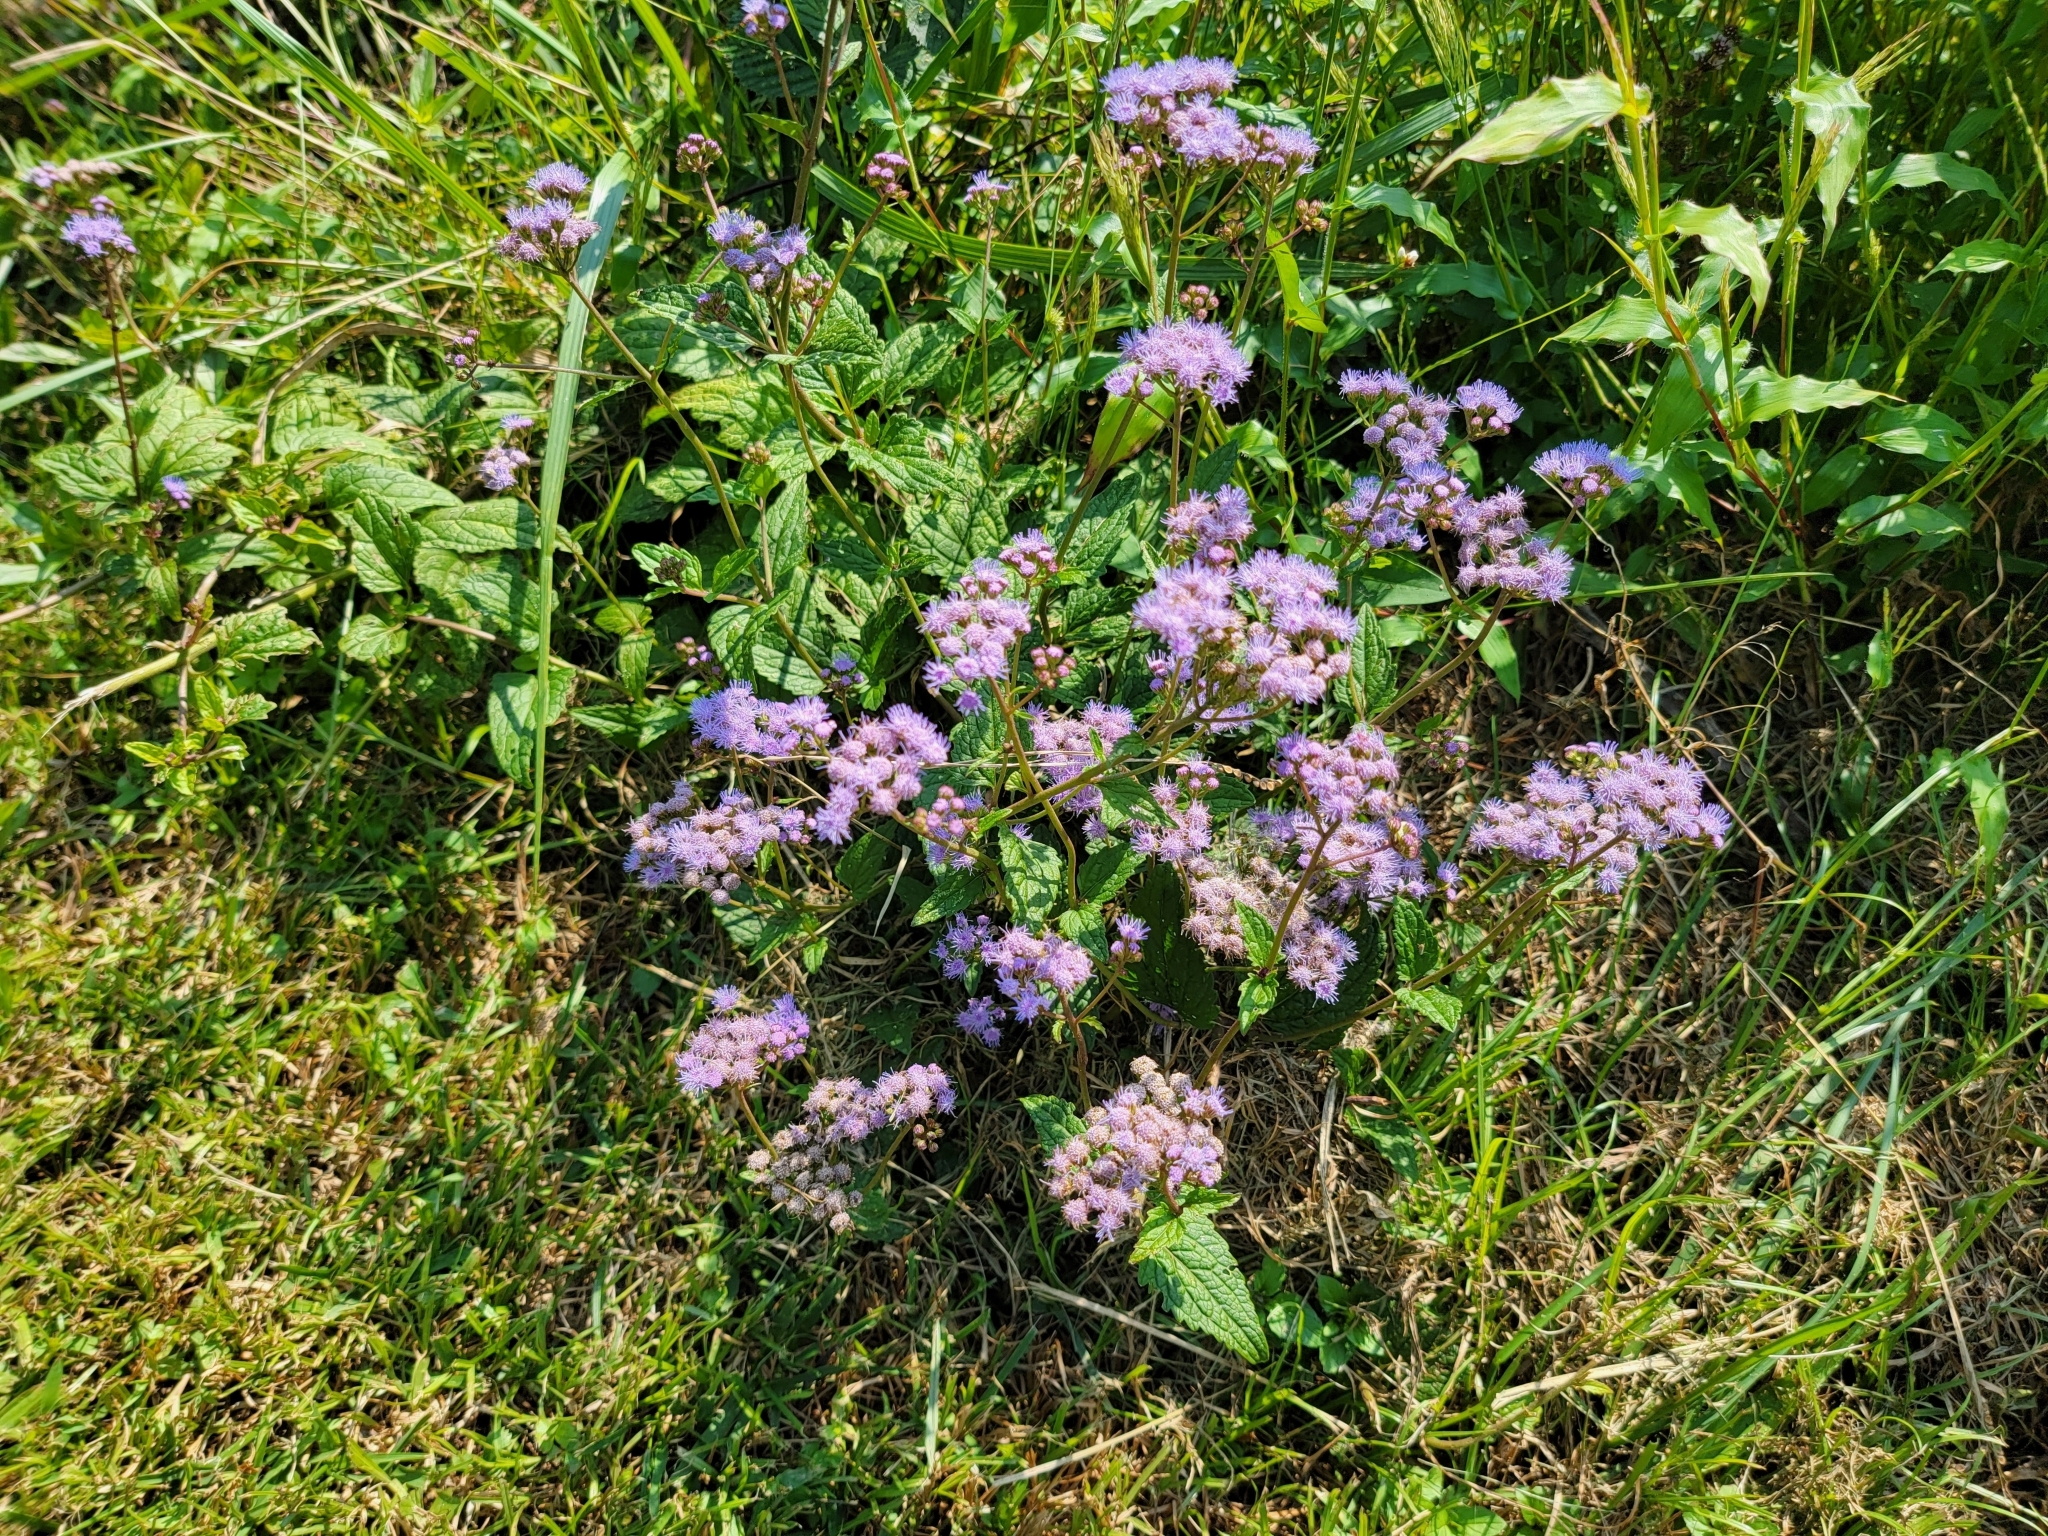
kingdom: Plantae
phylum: Tracheophyta
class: Magnoliopsida
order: Asterales
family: Asteraceae
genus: Conoclinium
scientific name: Conoclinium coelestinum
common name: Blue mistflower
